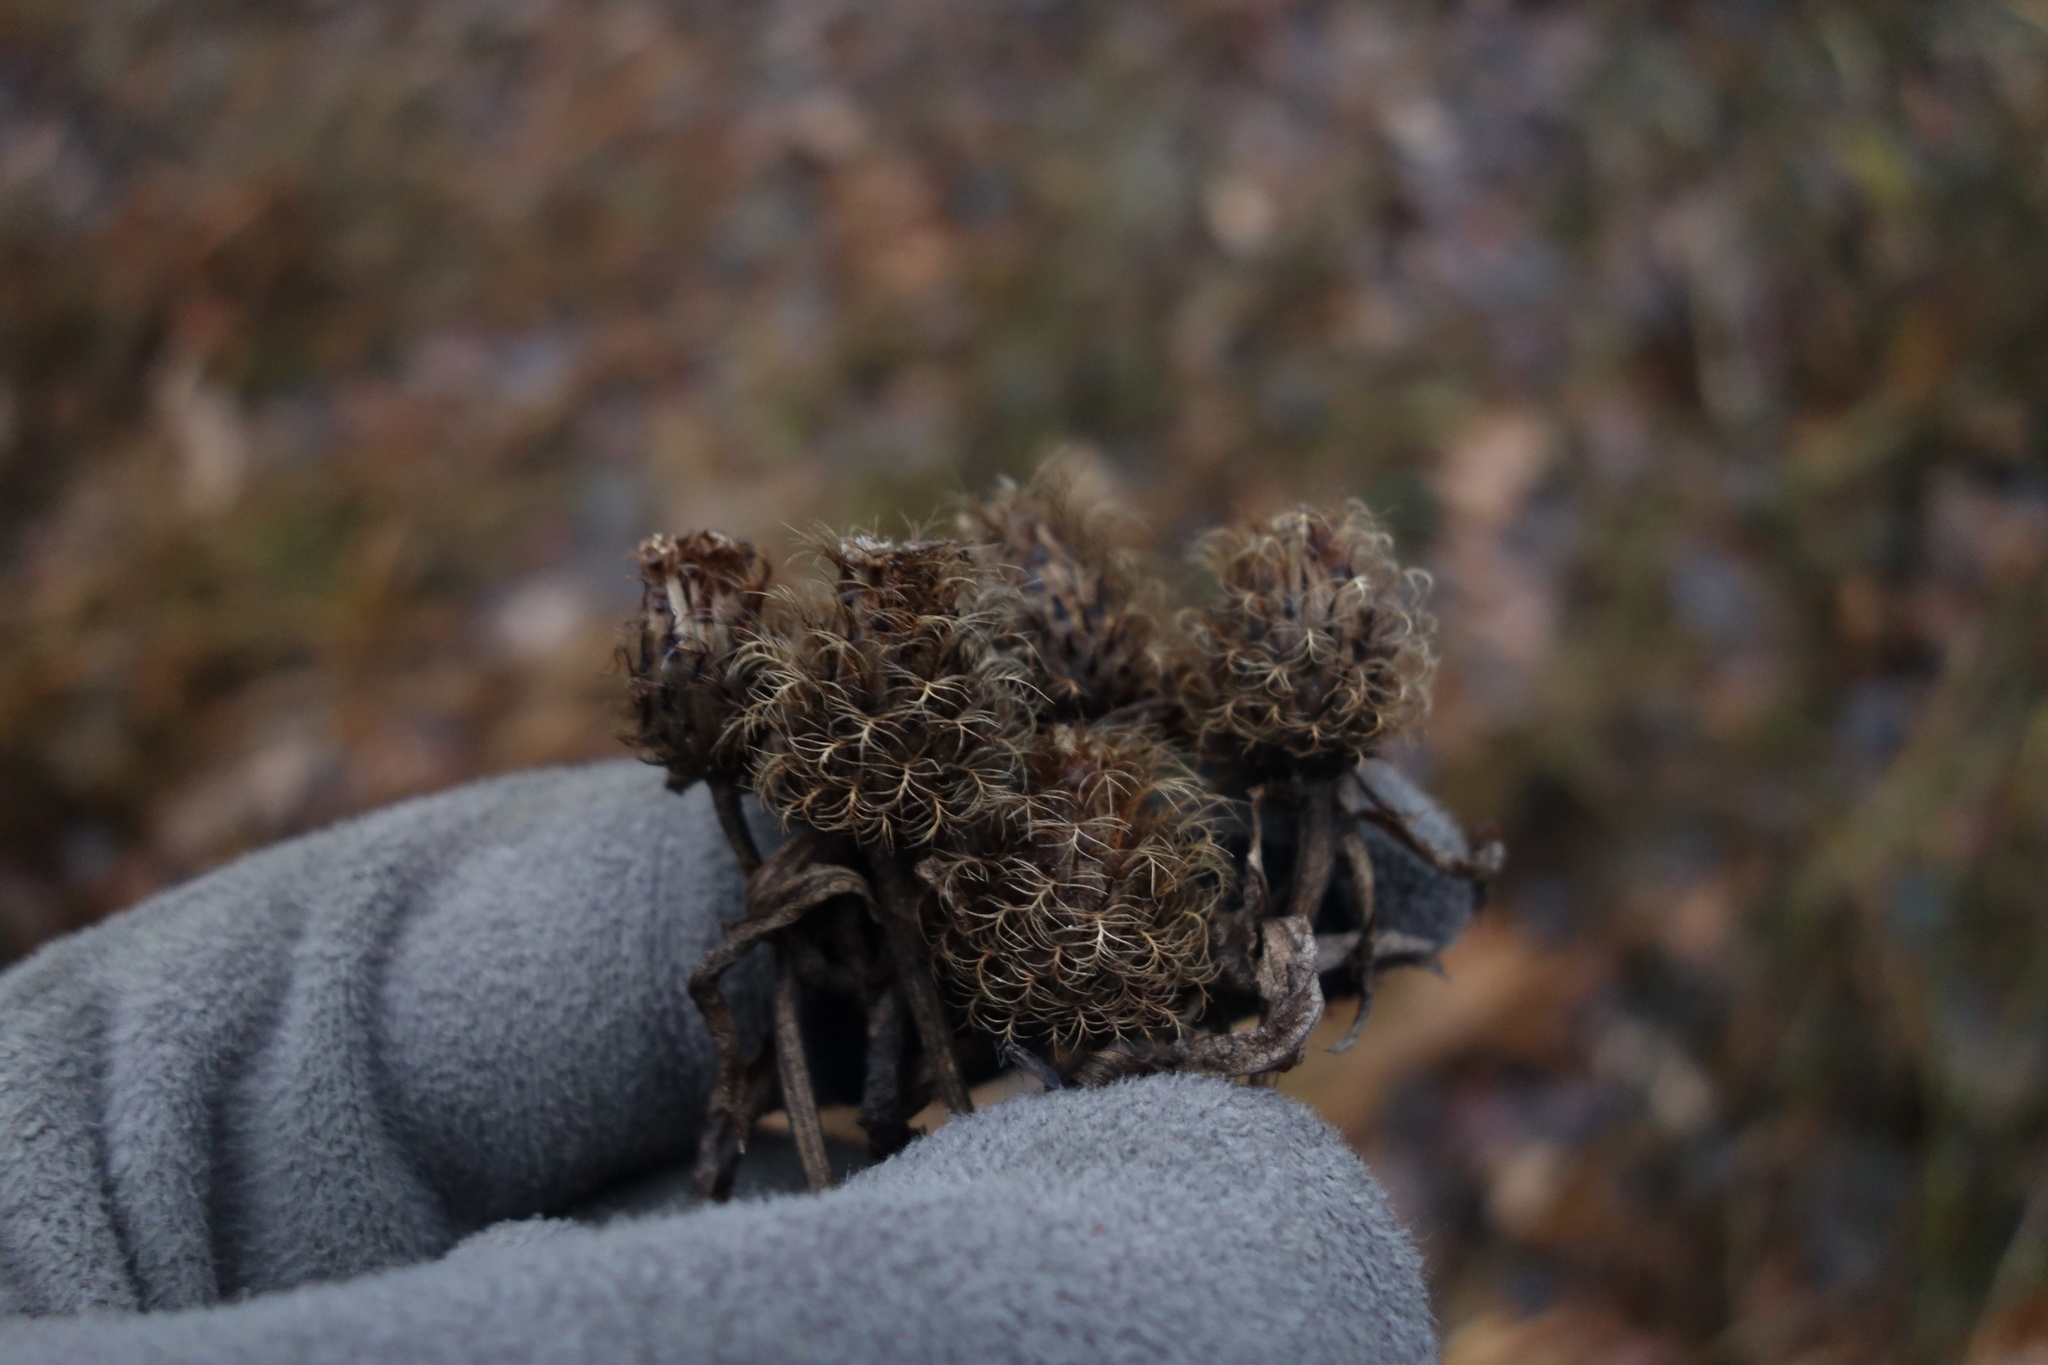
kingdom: Plantae
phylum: Tracheophyta
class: Magnoliopsida
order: Asterales
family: Asteraceae
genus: Centaurea
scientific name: Centaurea pseudophrygia
